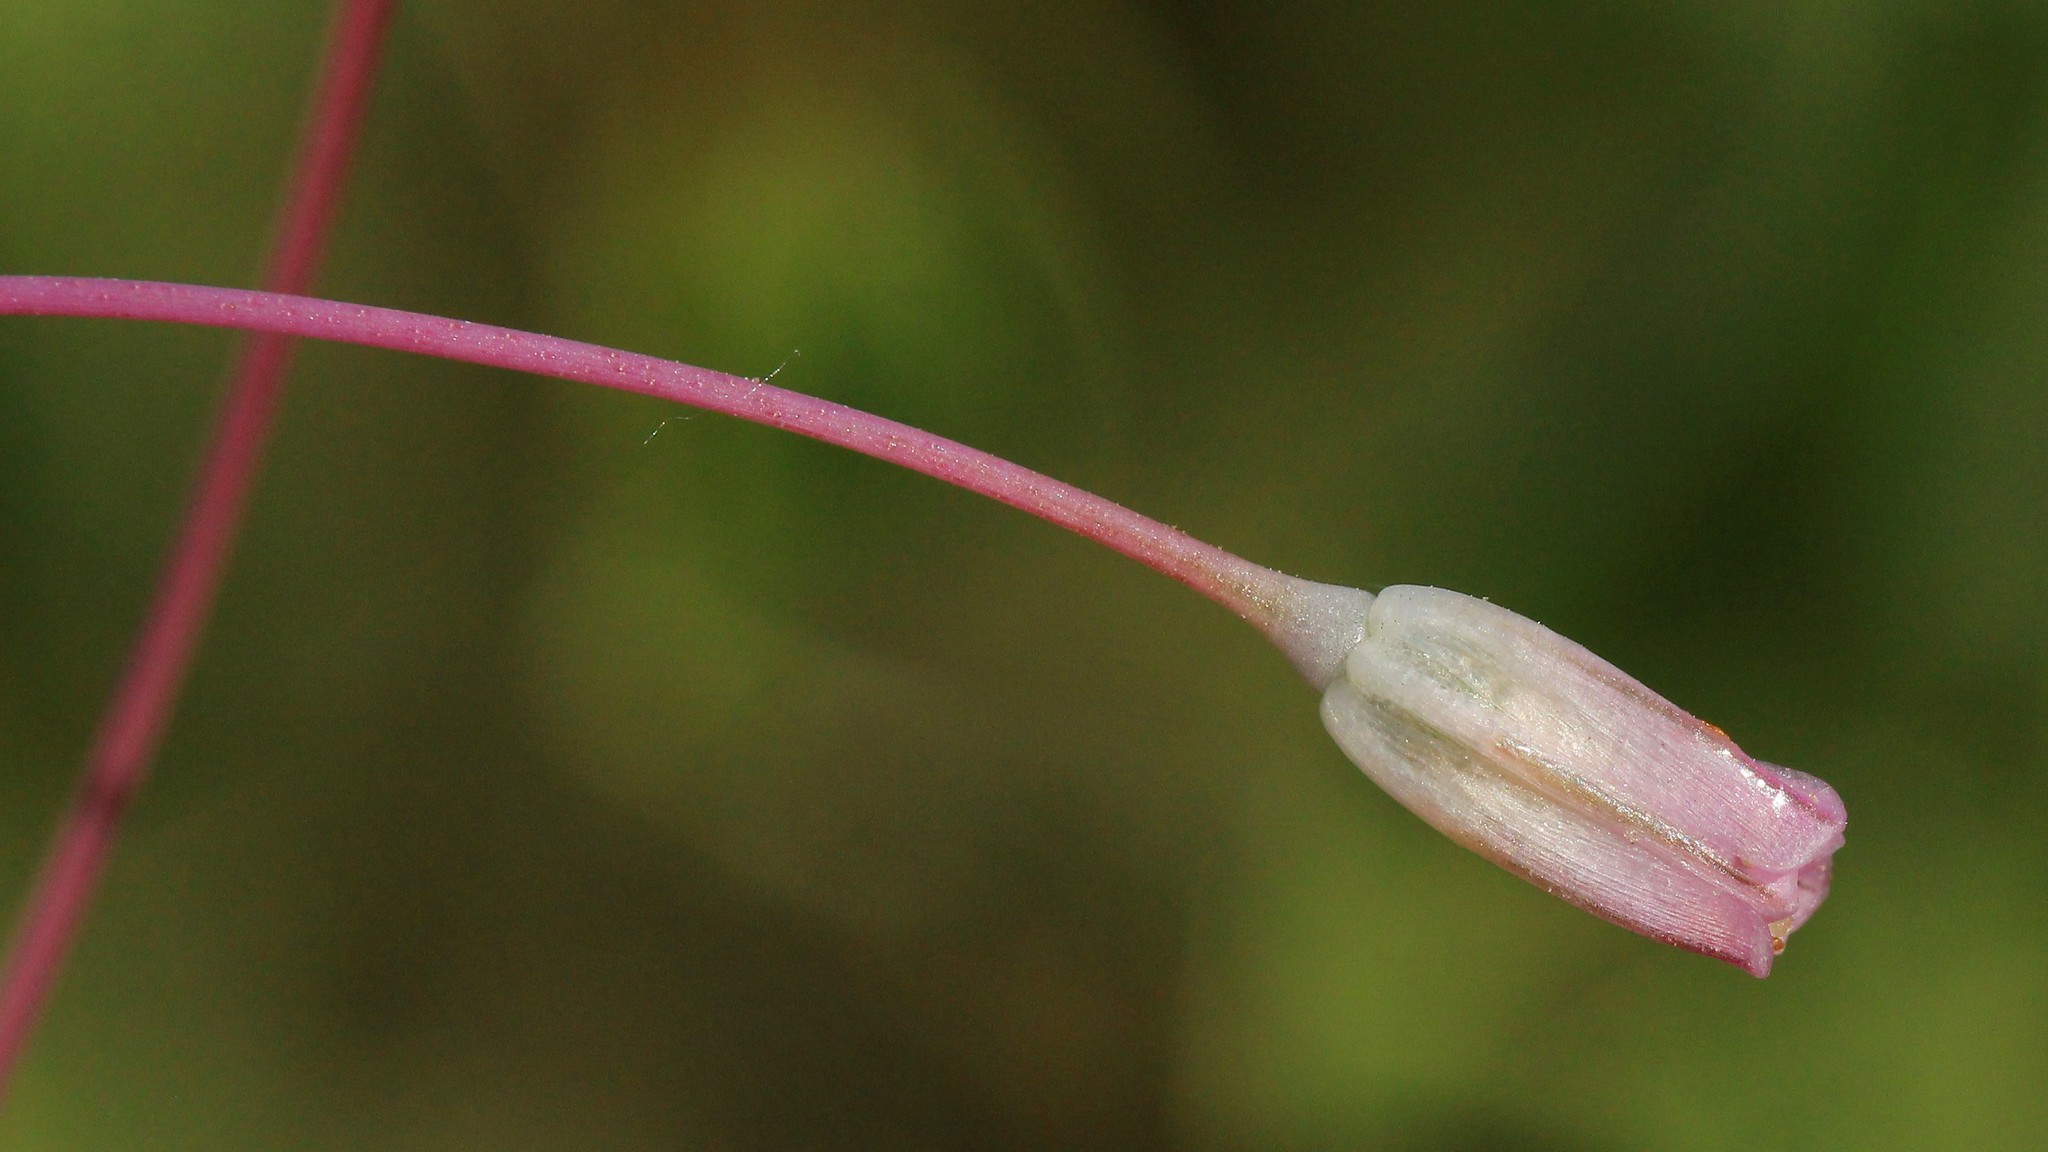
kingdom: Plantae
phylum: Tracheophyta
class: Liliopsida
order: Asparagales
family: Amaryllidaceae
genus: Allium
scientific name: Allium praescissum
